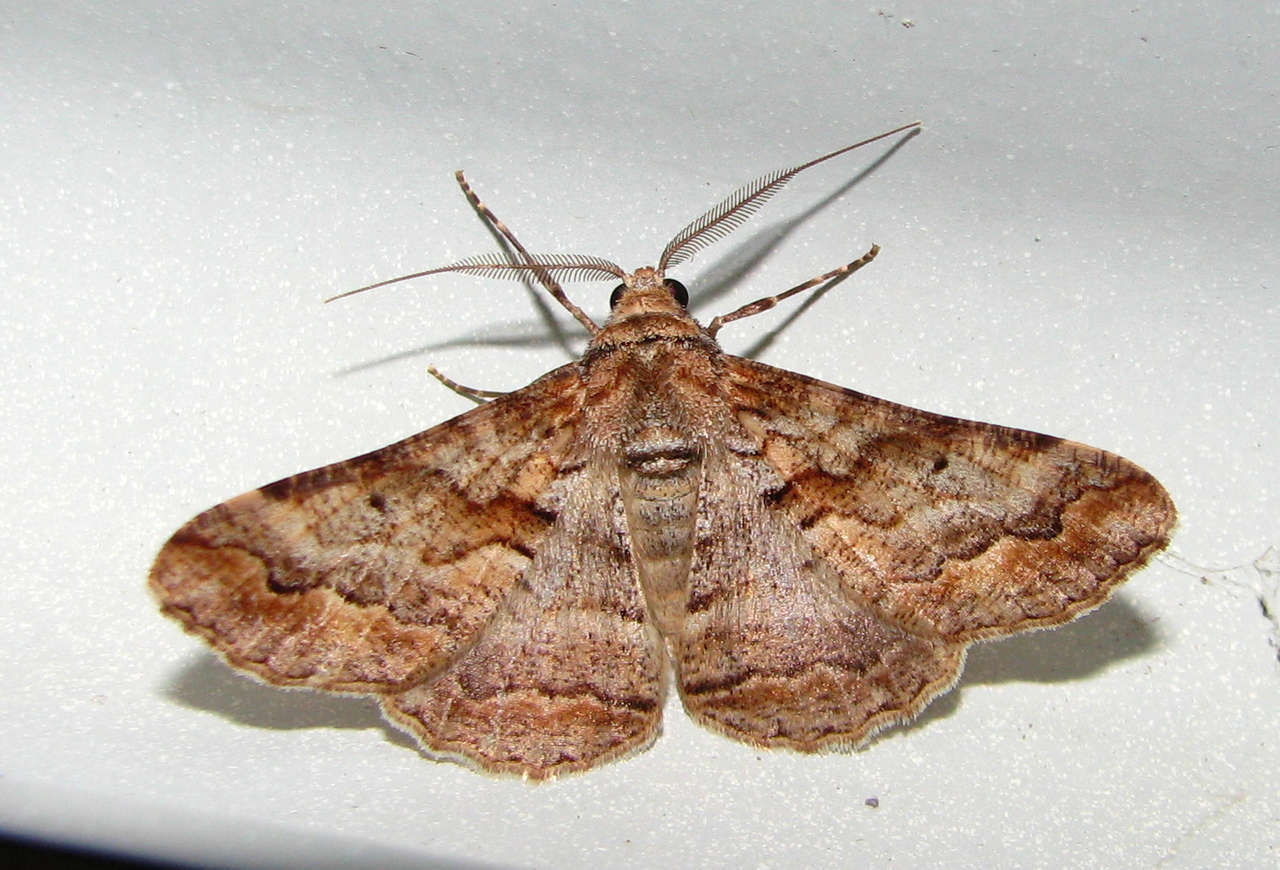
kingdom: Animalia
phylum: Arthropoda
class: Insecta
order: Lepidoptera
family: Geometridae
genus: Gastrinodes
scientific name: Gastrinodes bitaeniaria
